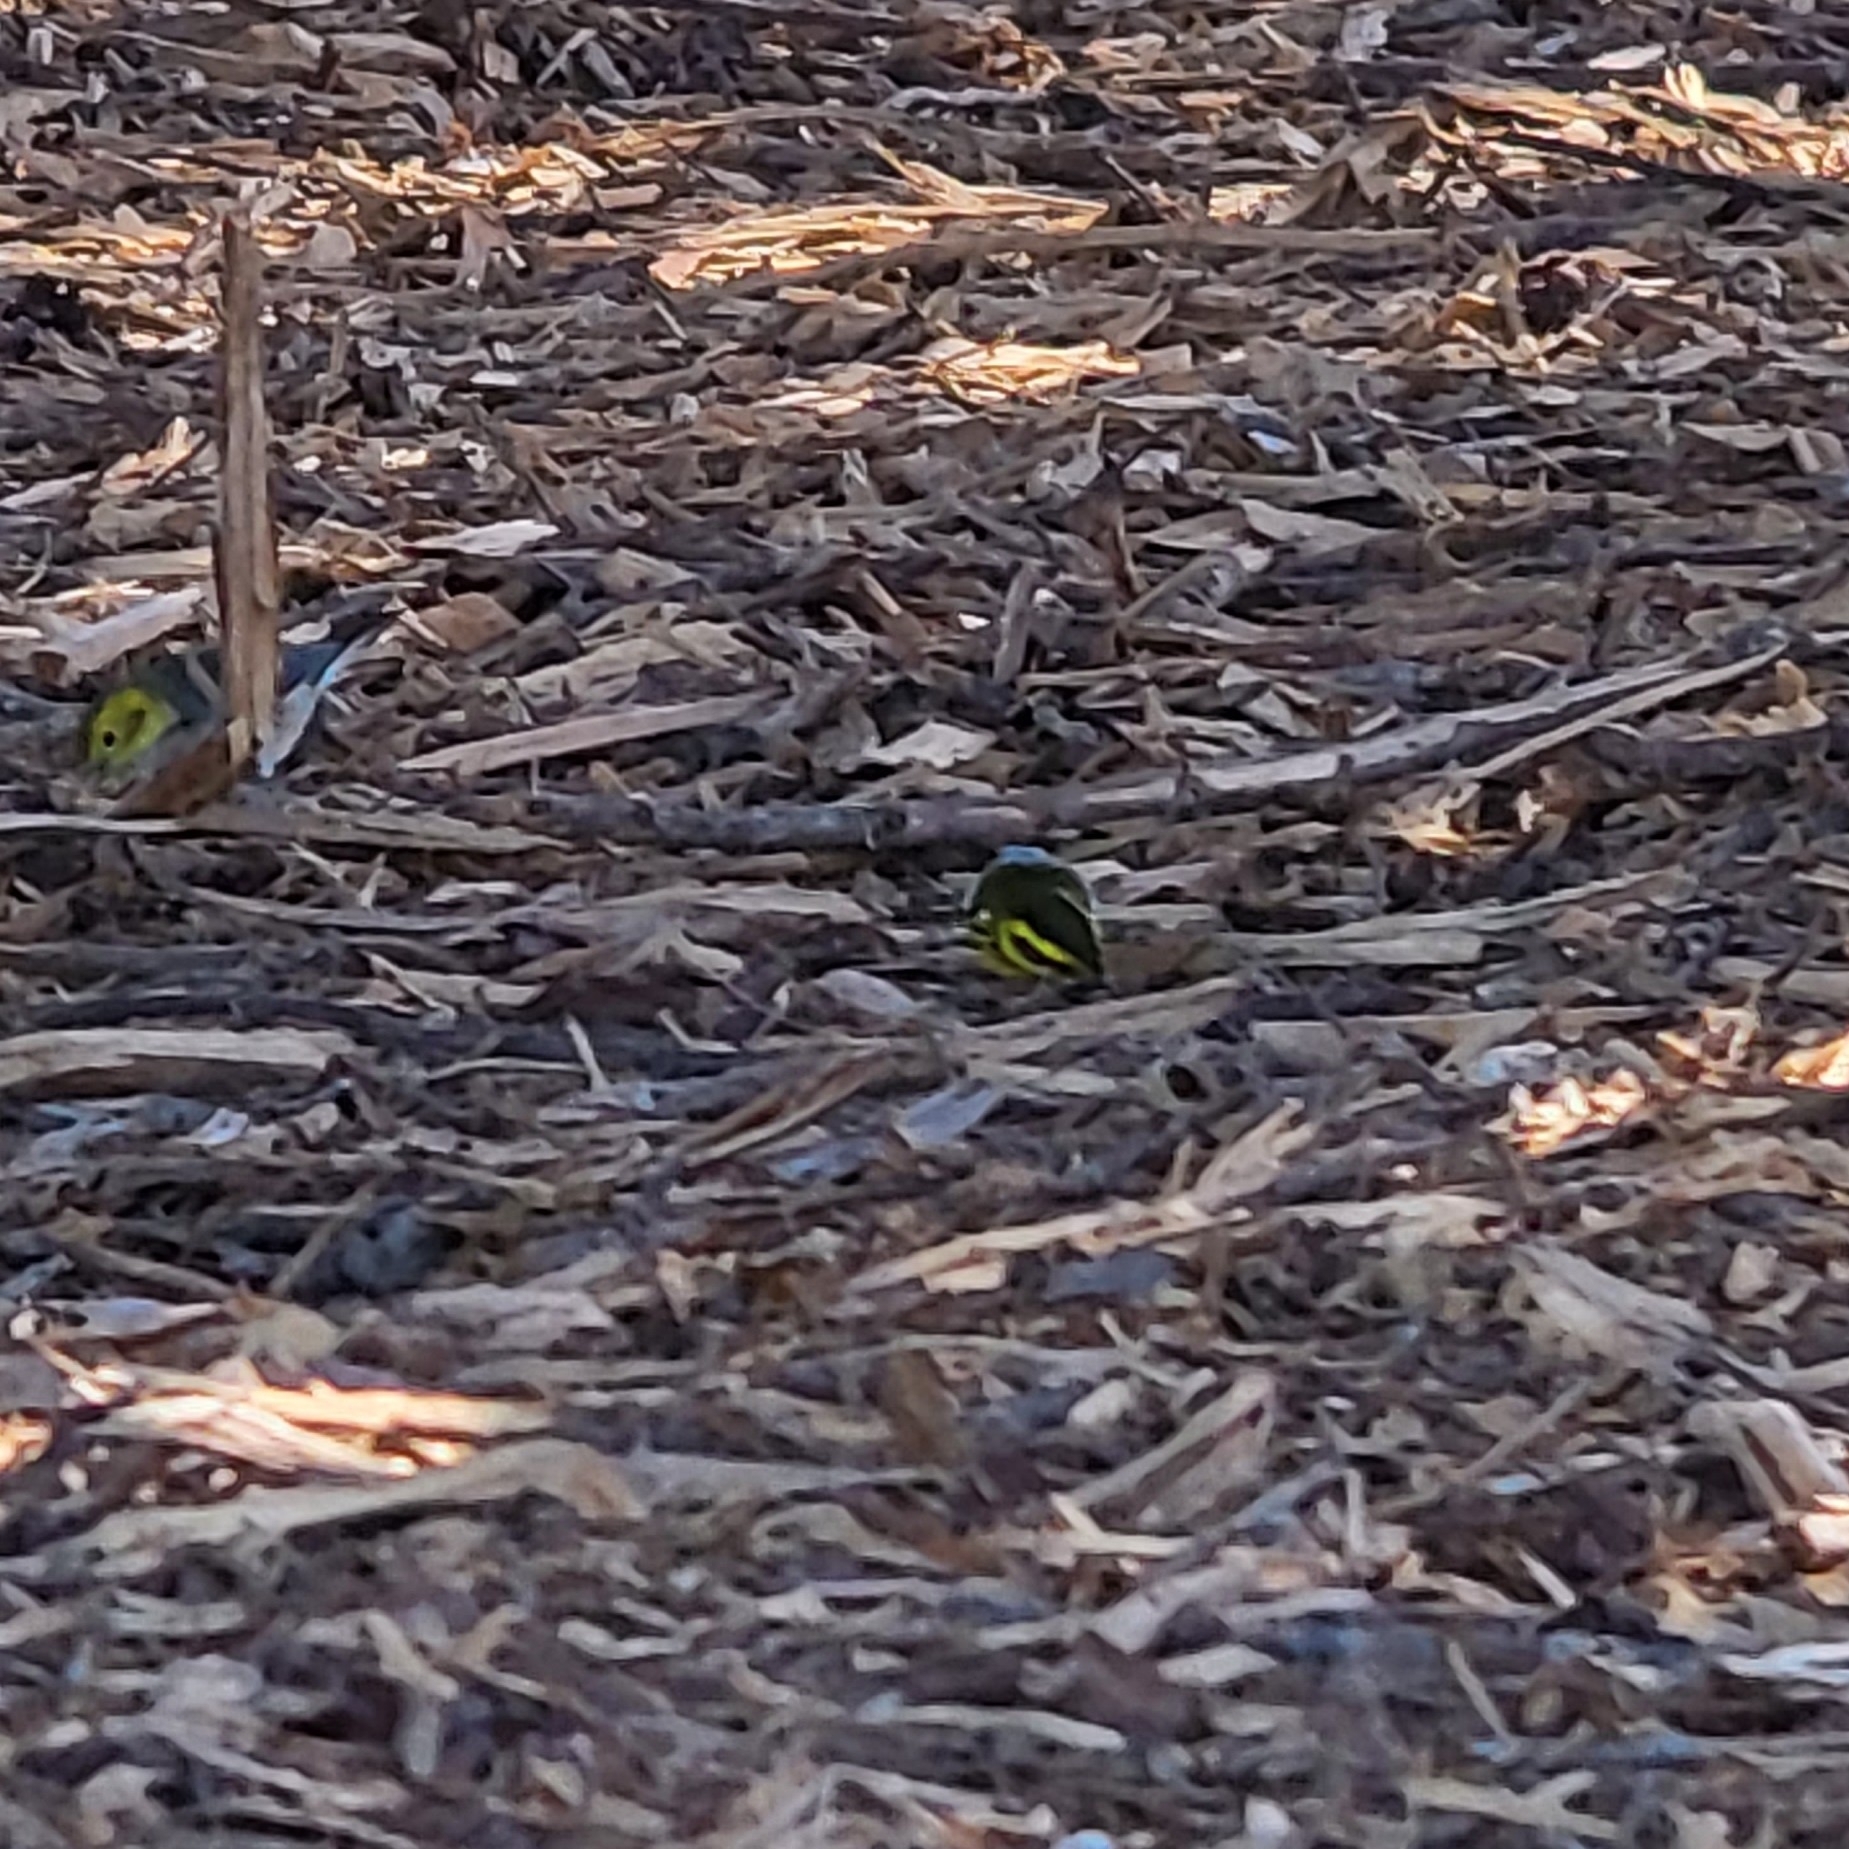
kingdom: Animalia
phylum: Chordata
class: Aves
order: Passeriformes
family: Parulidae
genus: Setophaga
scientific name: Setophaga townsendi
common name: Townsend's warbler
